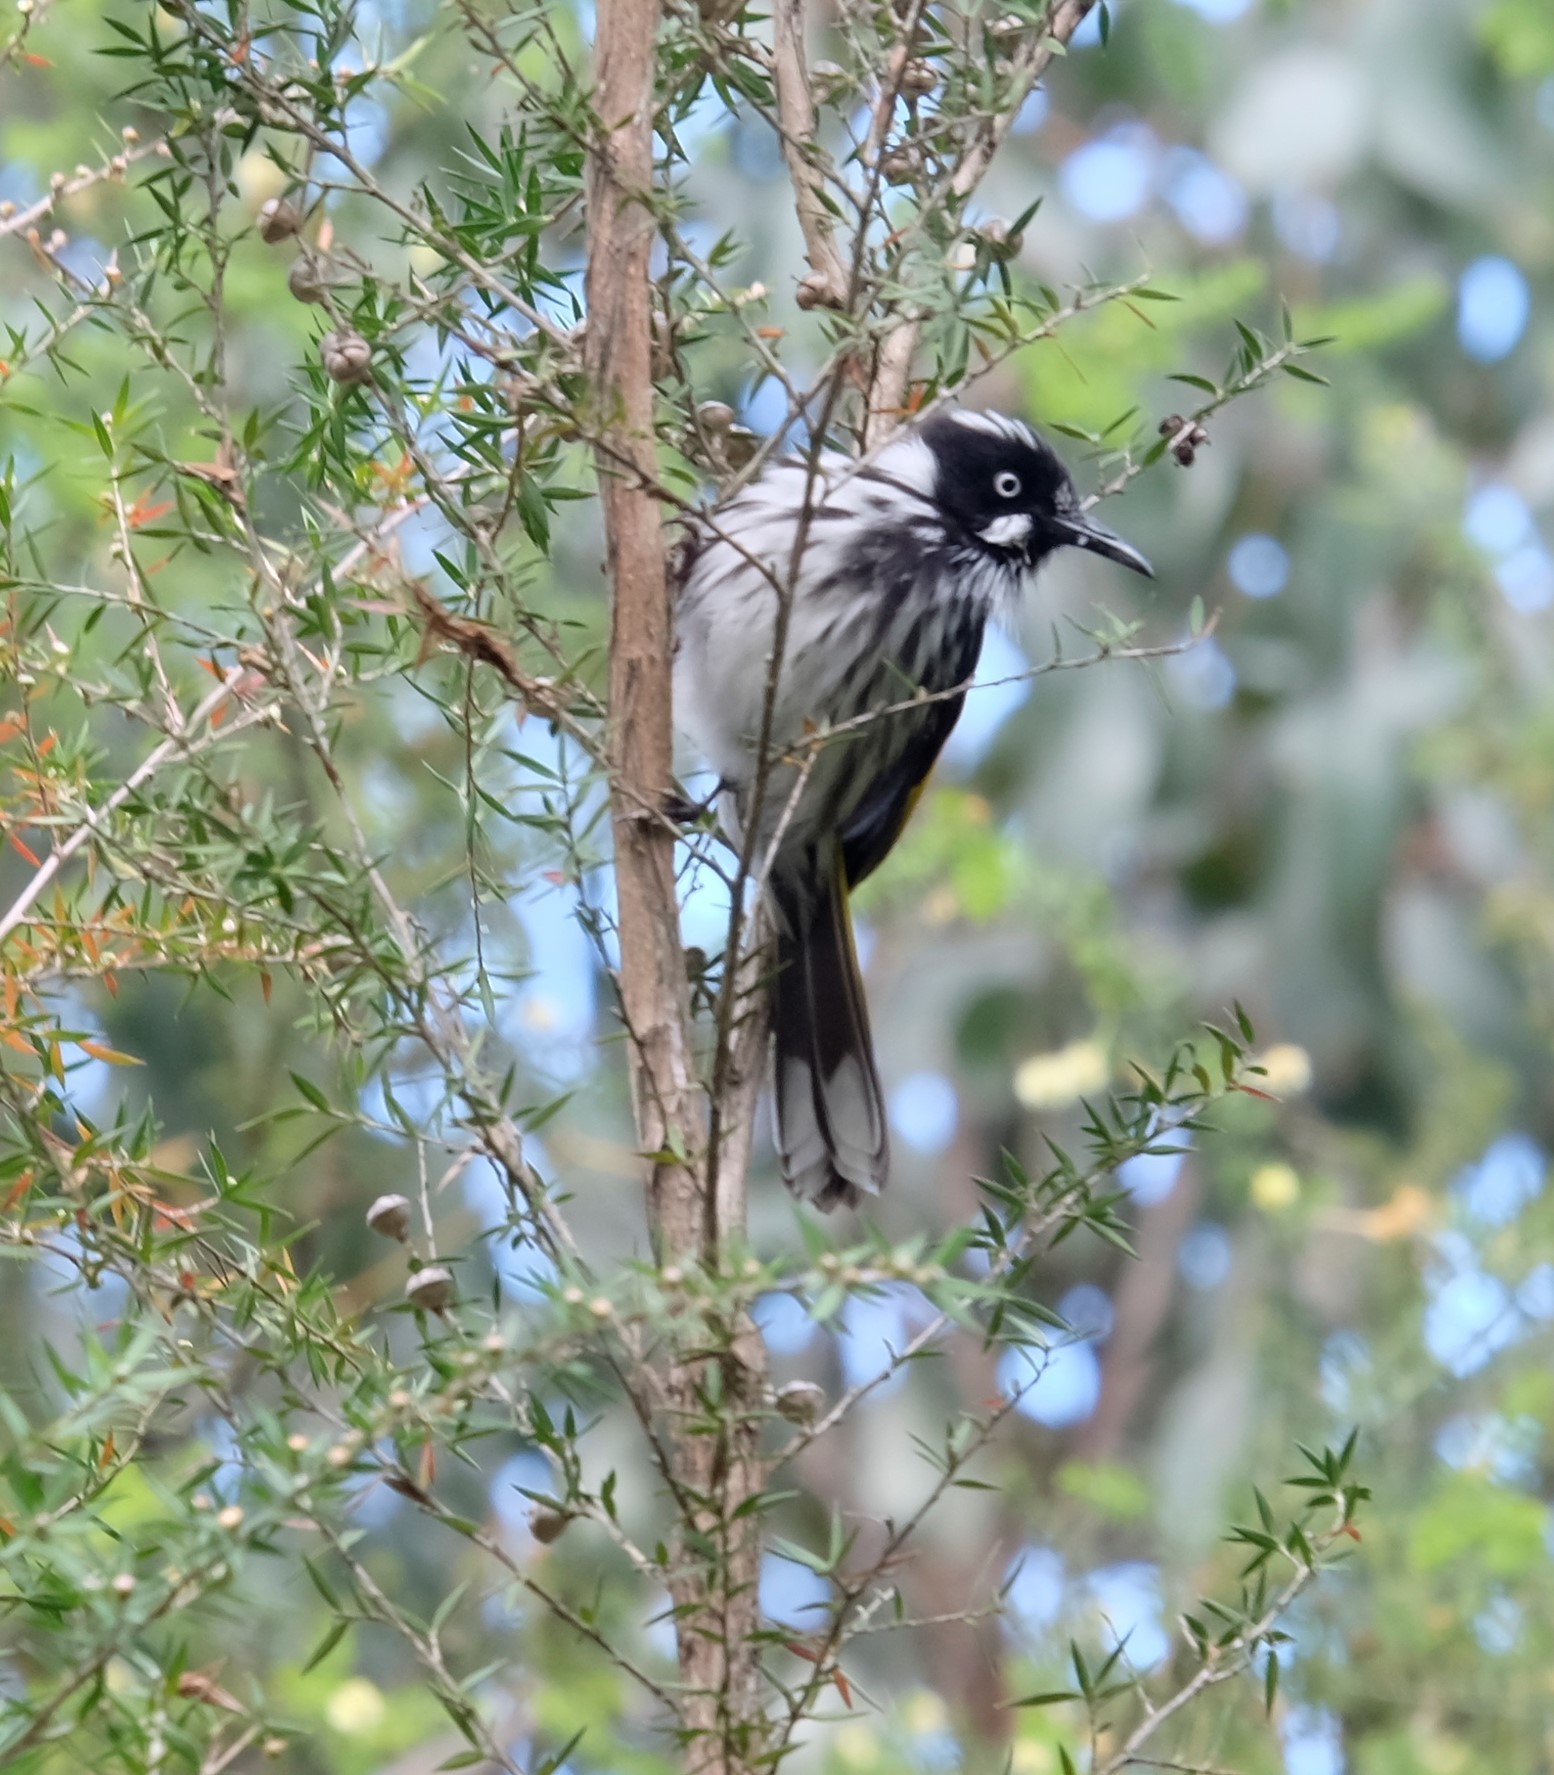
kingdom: Animalia
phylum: Chordata
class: Aves
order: Passeriformes
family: Meliphagidae
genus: Phylidonyris
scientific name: Phylidonyris novaehollandiae
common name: New holland honeyeater
